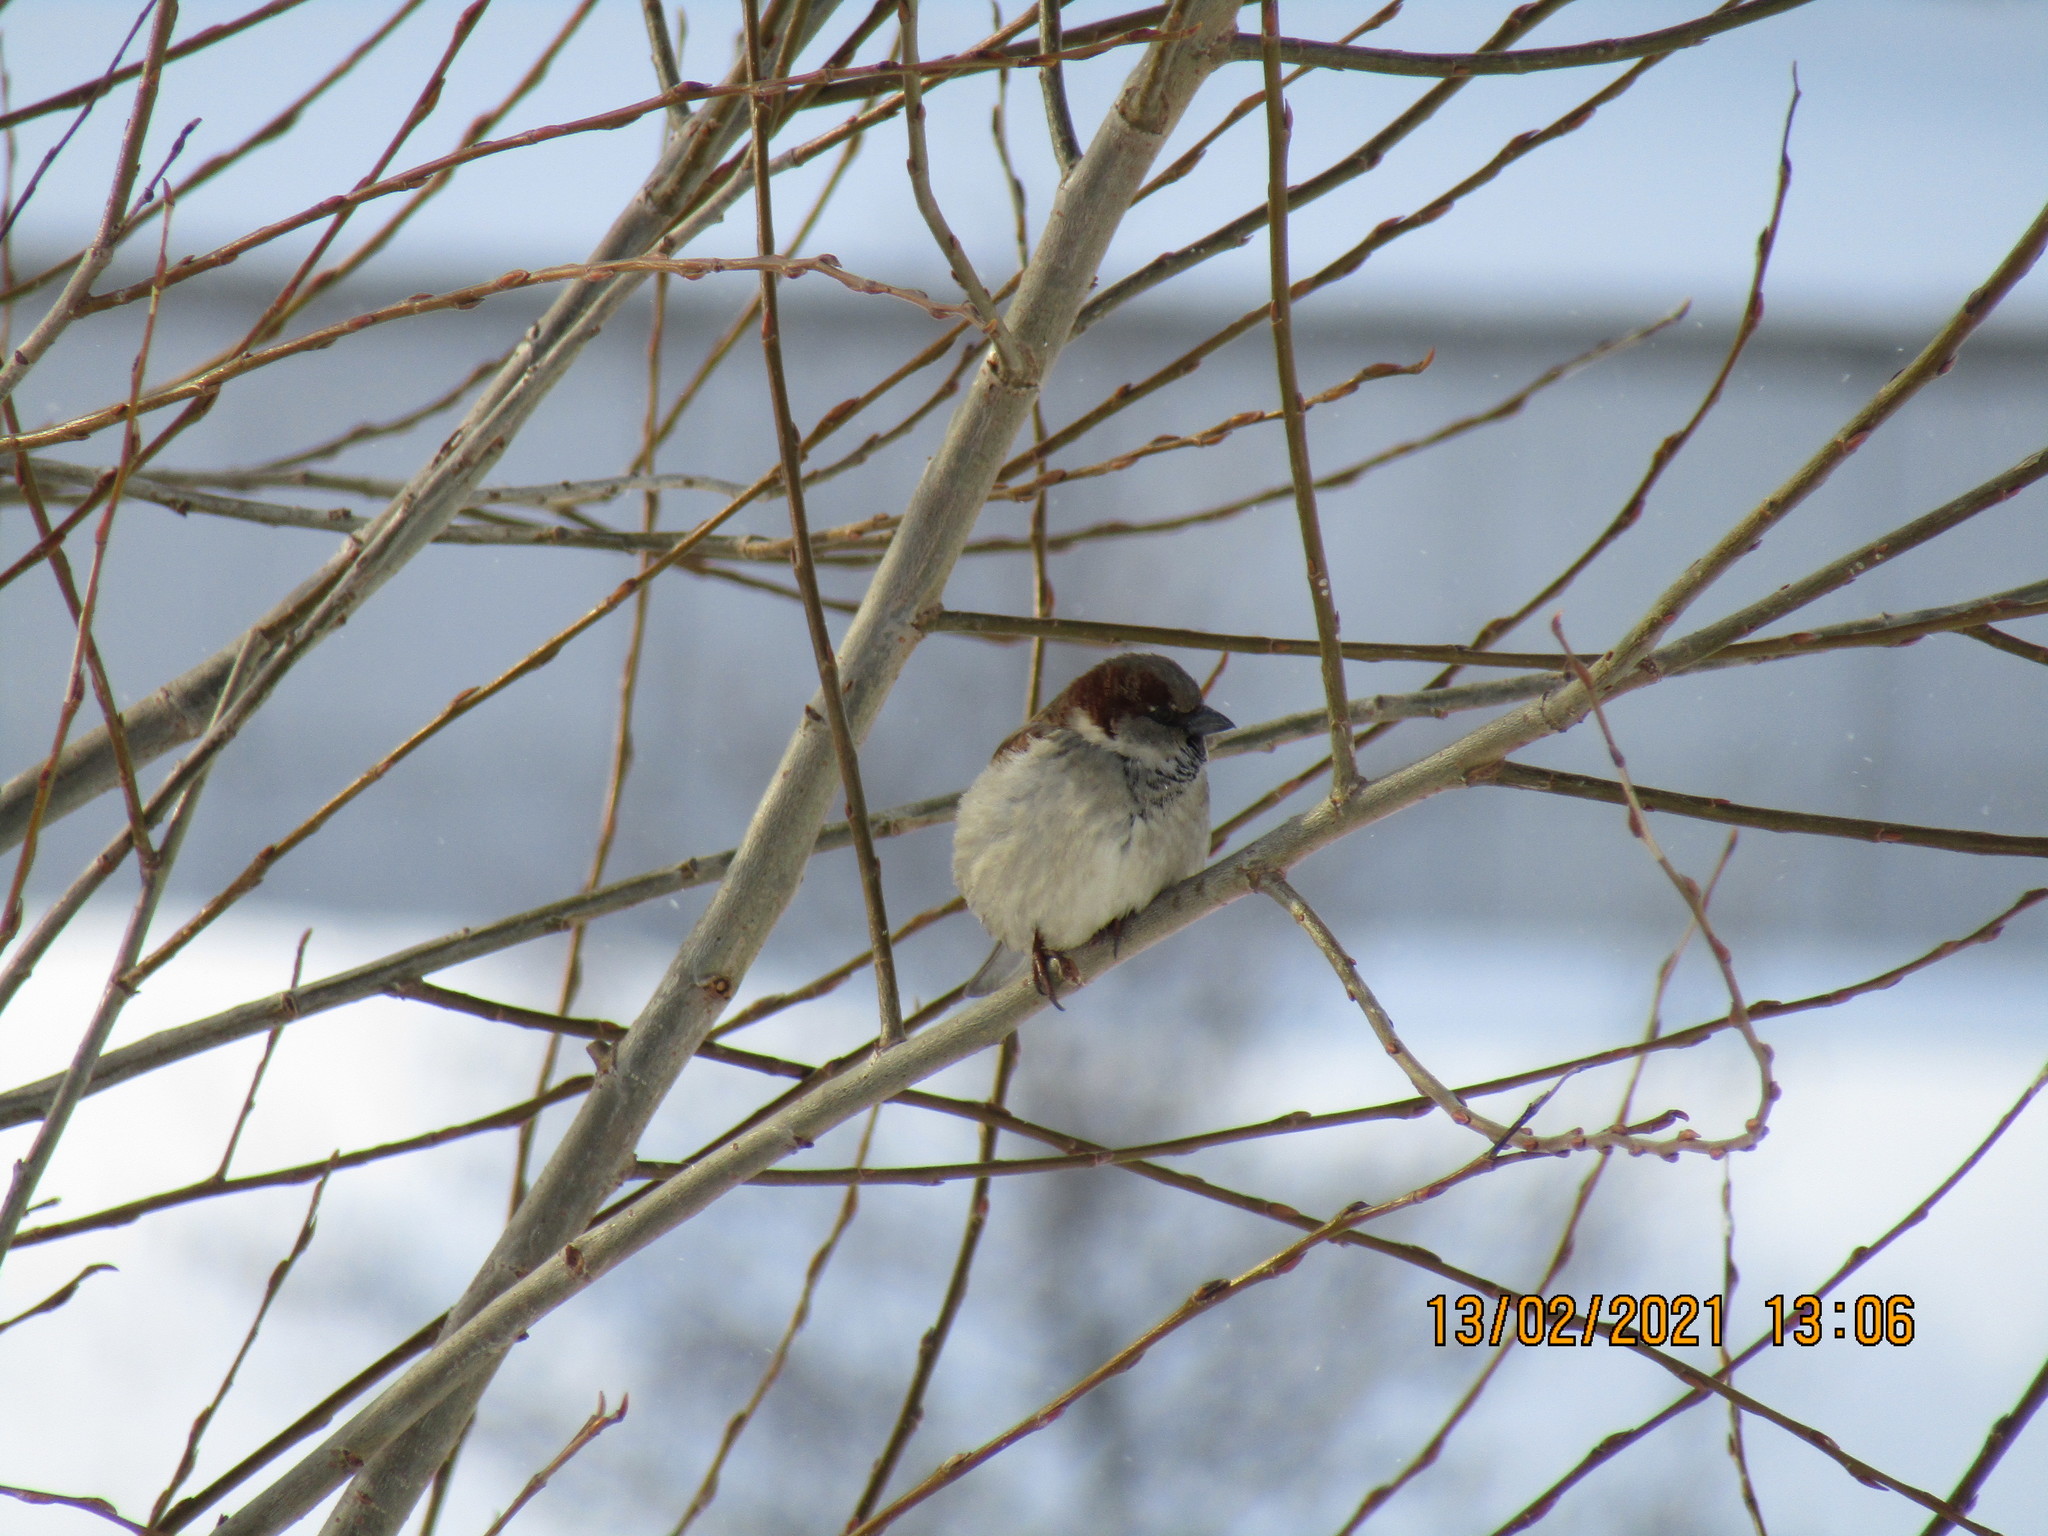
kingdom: Animalia
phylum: Chordata
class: Aves
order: Passeriformes
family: Passeridae
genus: Passer
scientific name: Passer domesticus
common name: House sparrow
